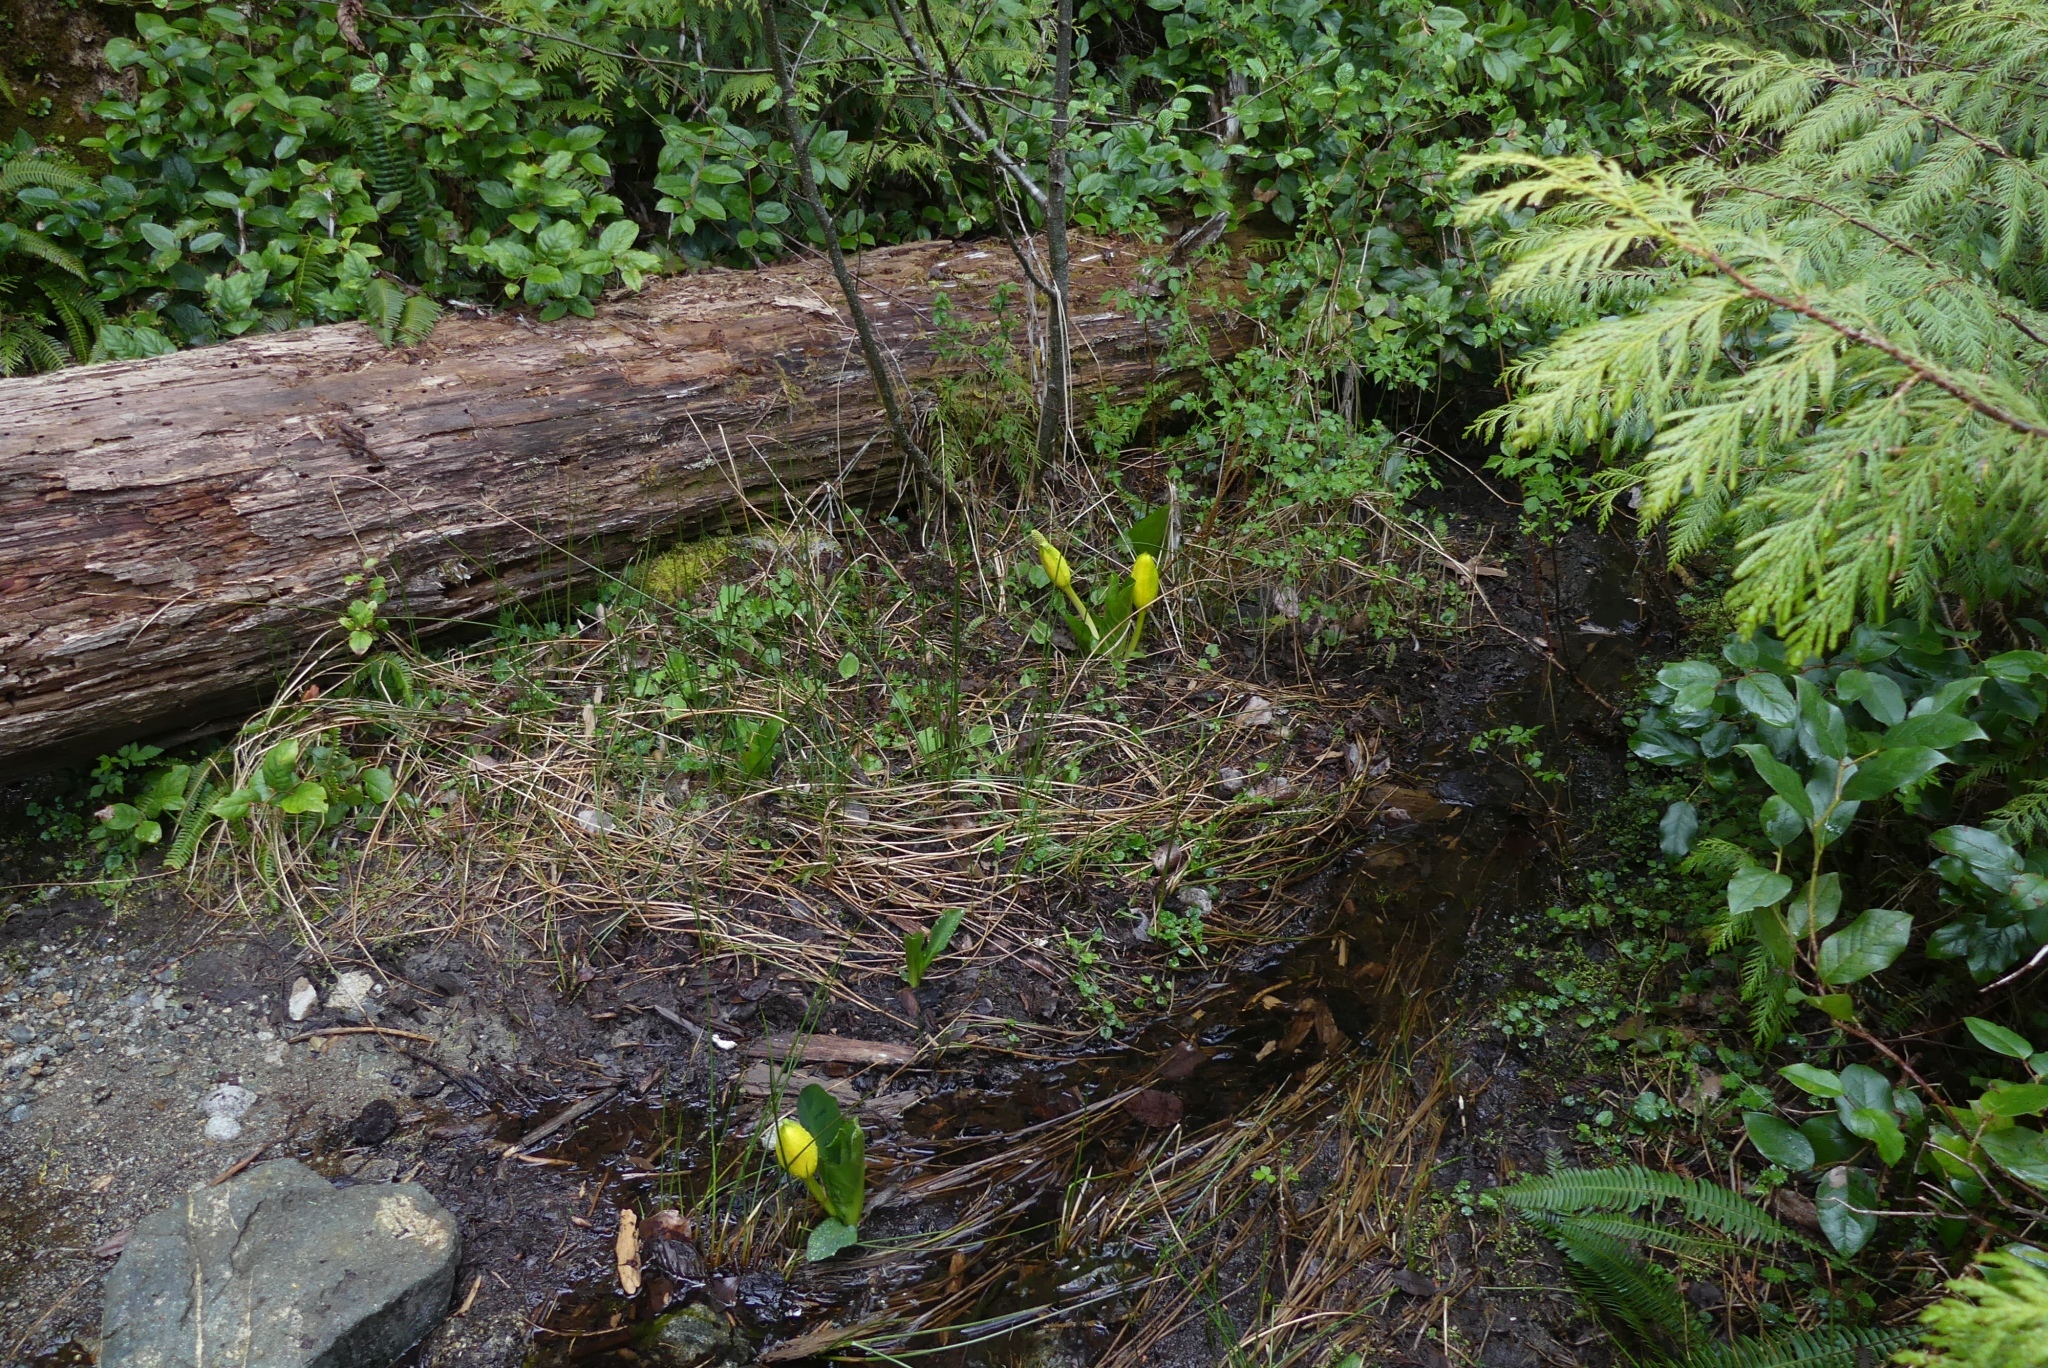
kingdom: Plantae
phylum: Tracheophyta
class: Liliopsida
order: Alismatales
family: Araceae
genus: Lysichiton
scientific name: Lysichiton americanus
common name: American skunk cabbage
